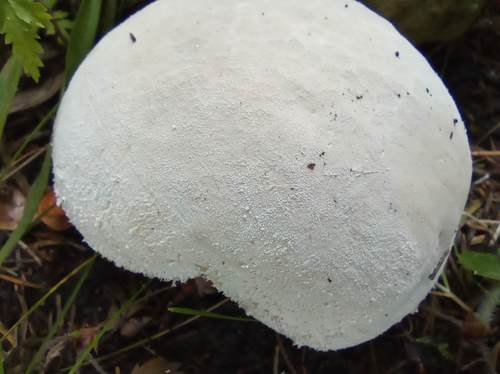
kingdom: Fungi
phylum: Basidiomycota
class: Agaricomycetes
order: Agaricales
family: Lycoperdaceae
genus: Lycoperdon
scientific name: Lycoperdon excipuliforme
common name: Pestle puffball
